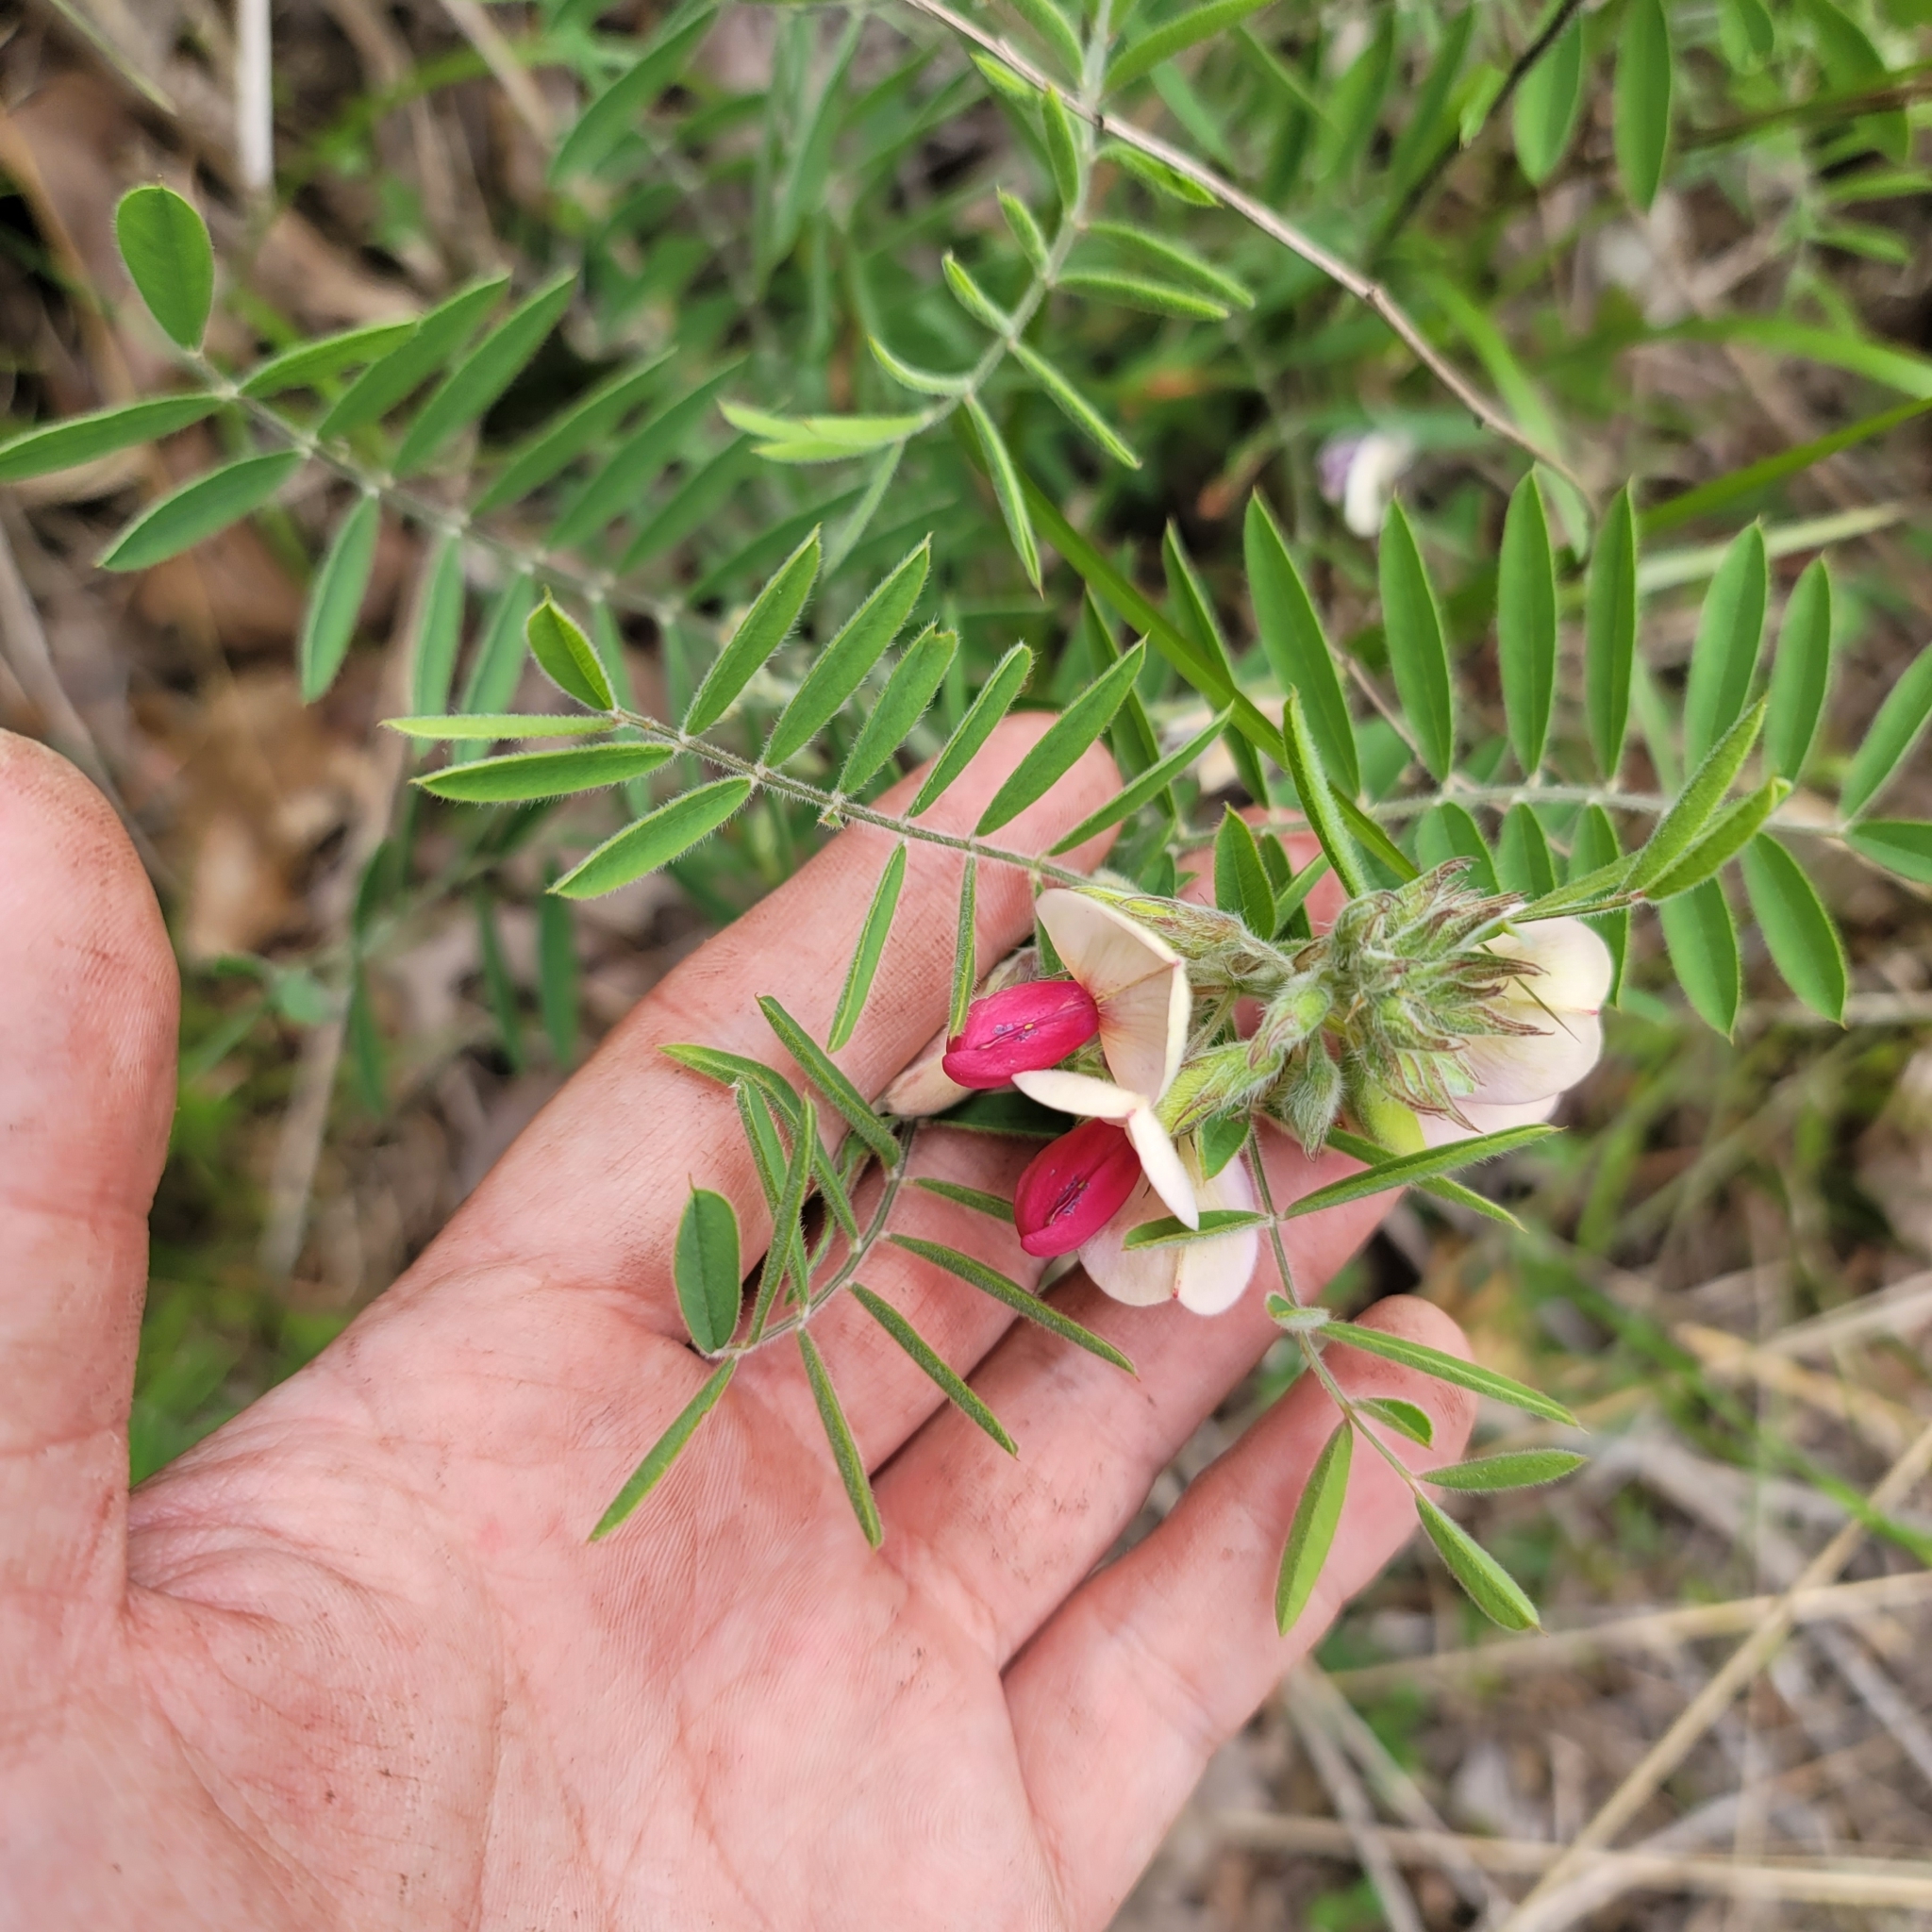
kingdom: Plantae
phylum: Tracheophyta
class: Magnoliopsida
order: Fabales
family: Fabaceae
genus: Tephrosia
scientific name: Tephrosia virginiana
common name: Rabbit-pea
